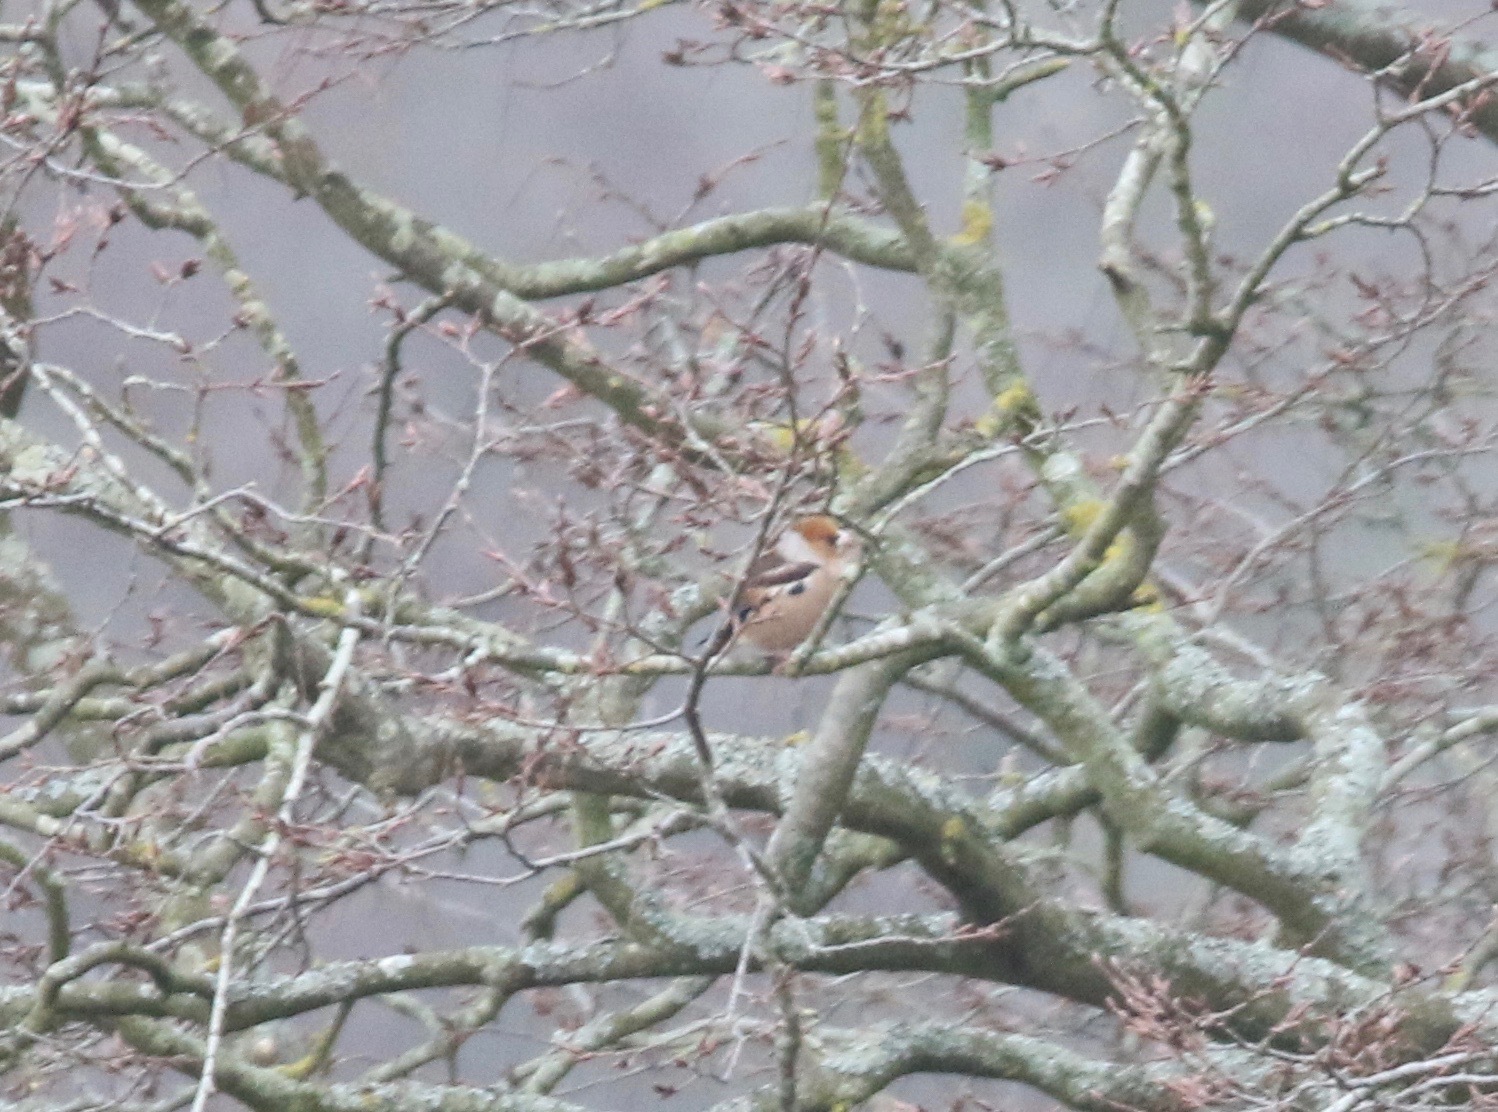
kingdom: Animalia
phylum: Chordata
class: Aves
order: Passeriformes
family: Fringillidae
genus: Coccothraustes
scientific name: Coccothraustes coccothraustes
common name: Hawfinch
